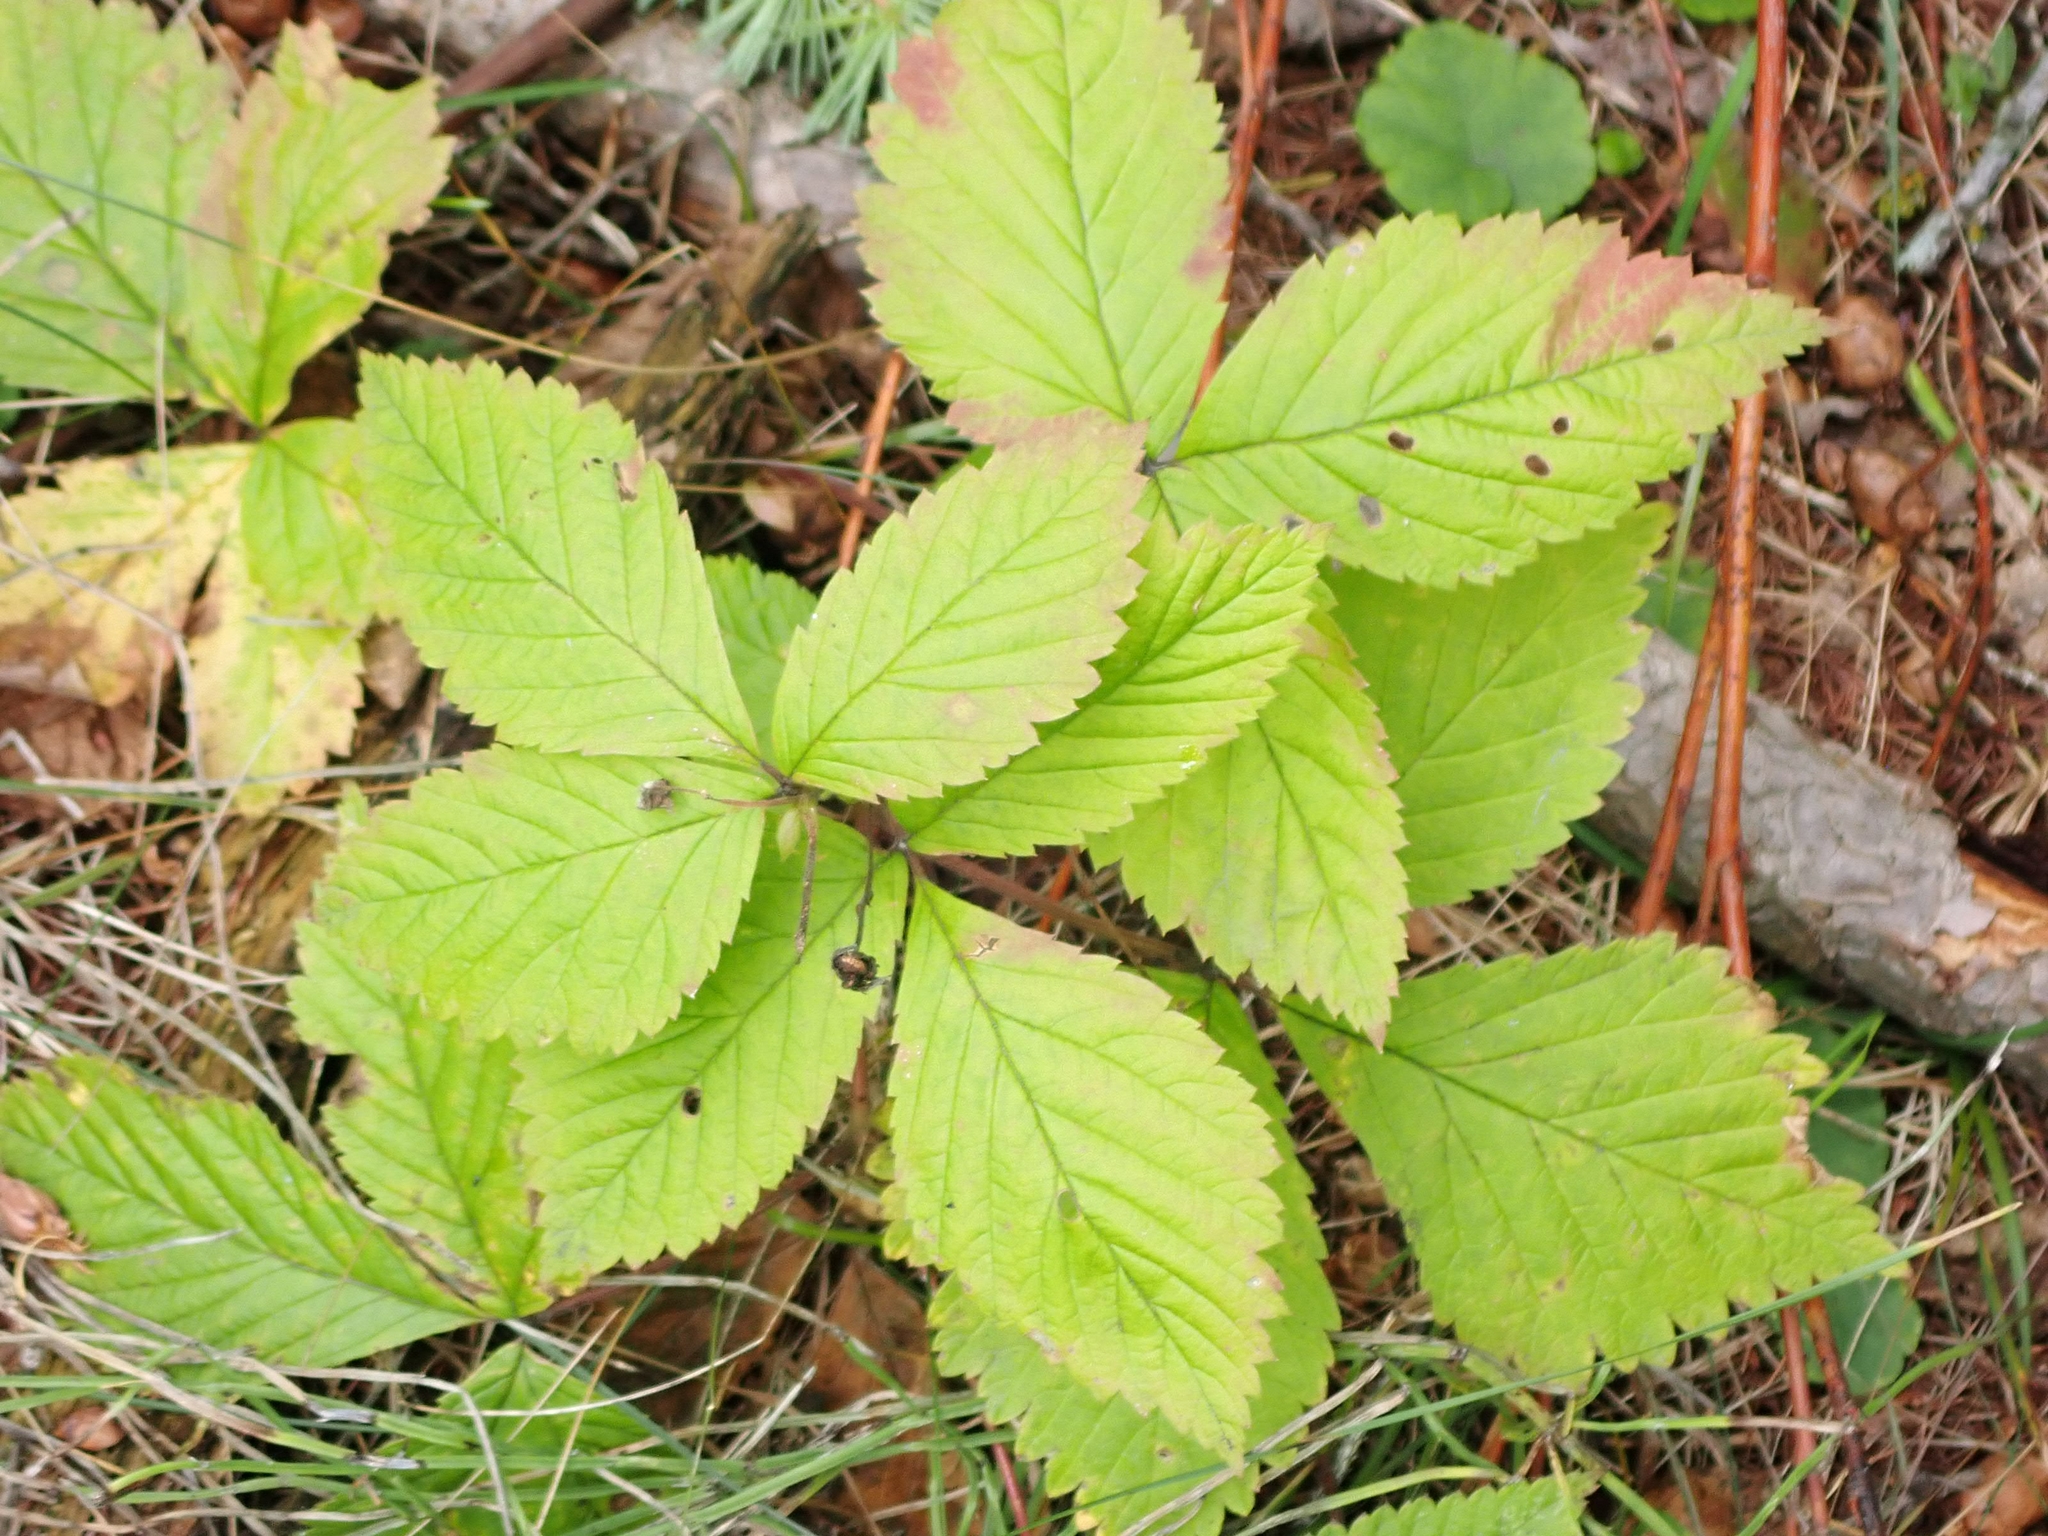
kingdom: Plantae
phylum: Tracheophyta
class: Magnoliopsida
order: Rosales
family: Rosaceae
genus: Rubus
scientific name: Rubus pubescens
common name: Dwarf raspberry
